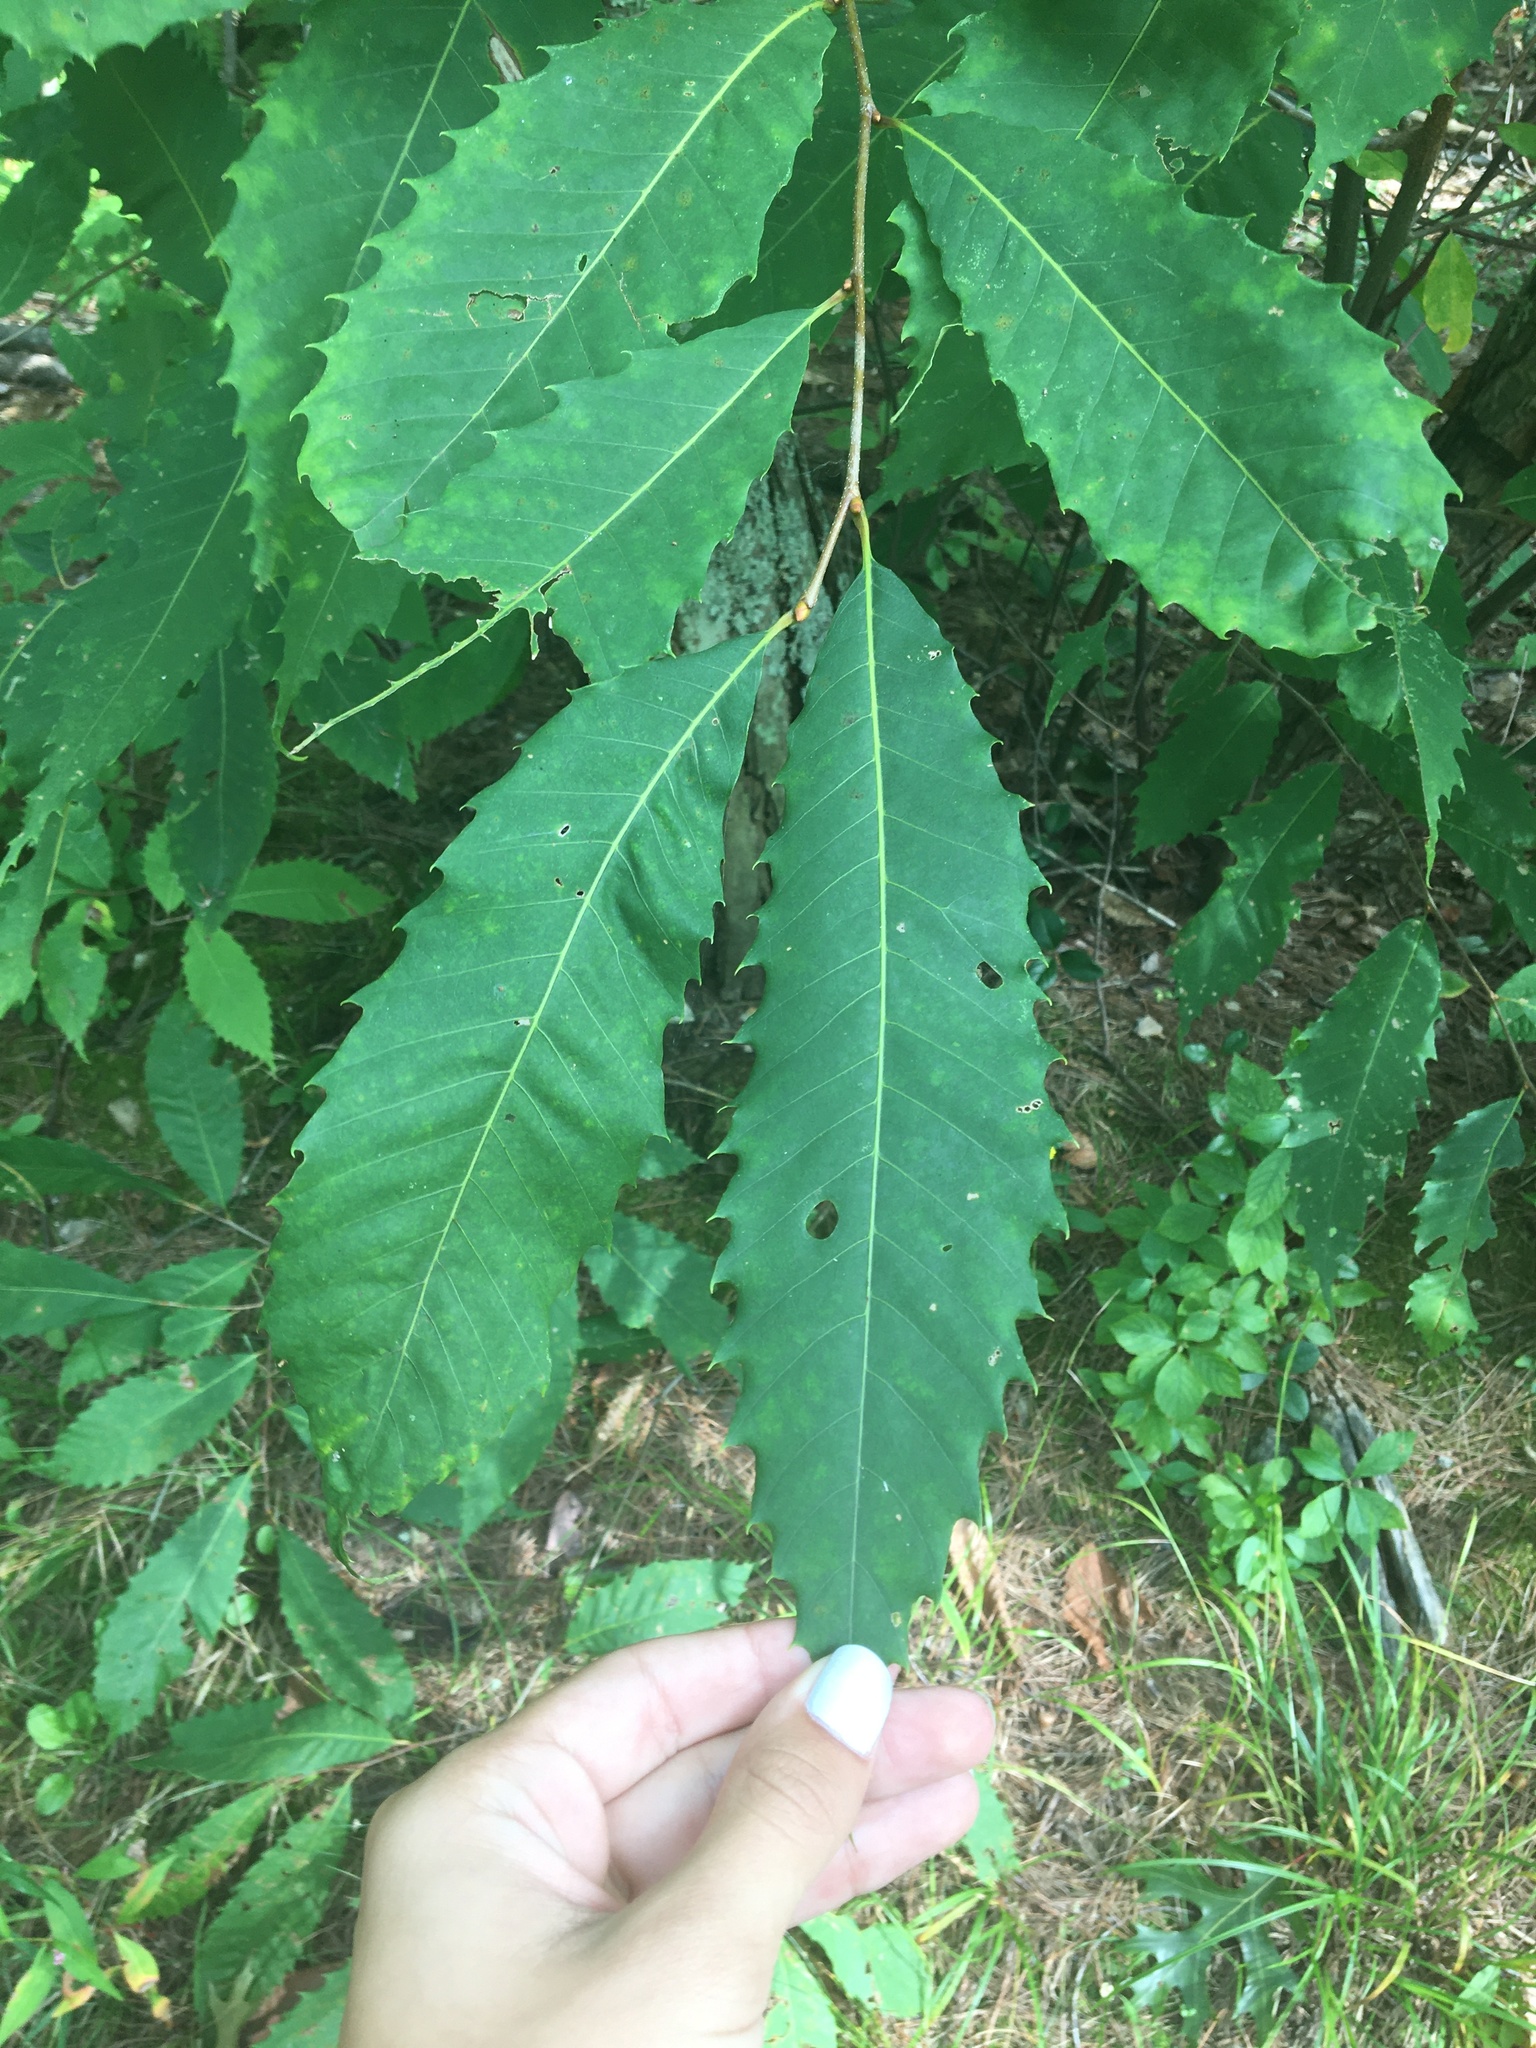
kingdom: Plantae
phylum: Tracheophyta
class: Magnoliopsida
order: Fagales
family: Fagaceae
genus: Castanea
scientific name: Castanea dentata
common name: American chestnut
